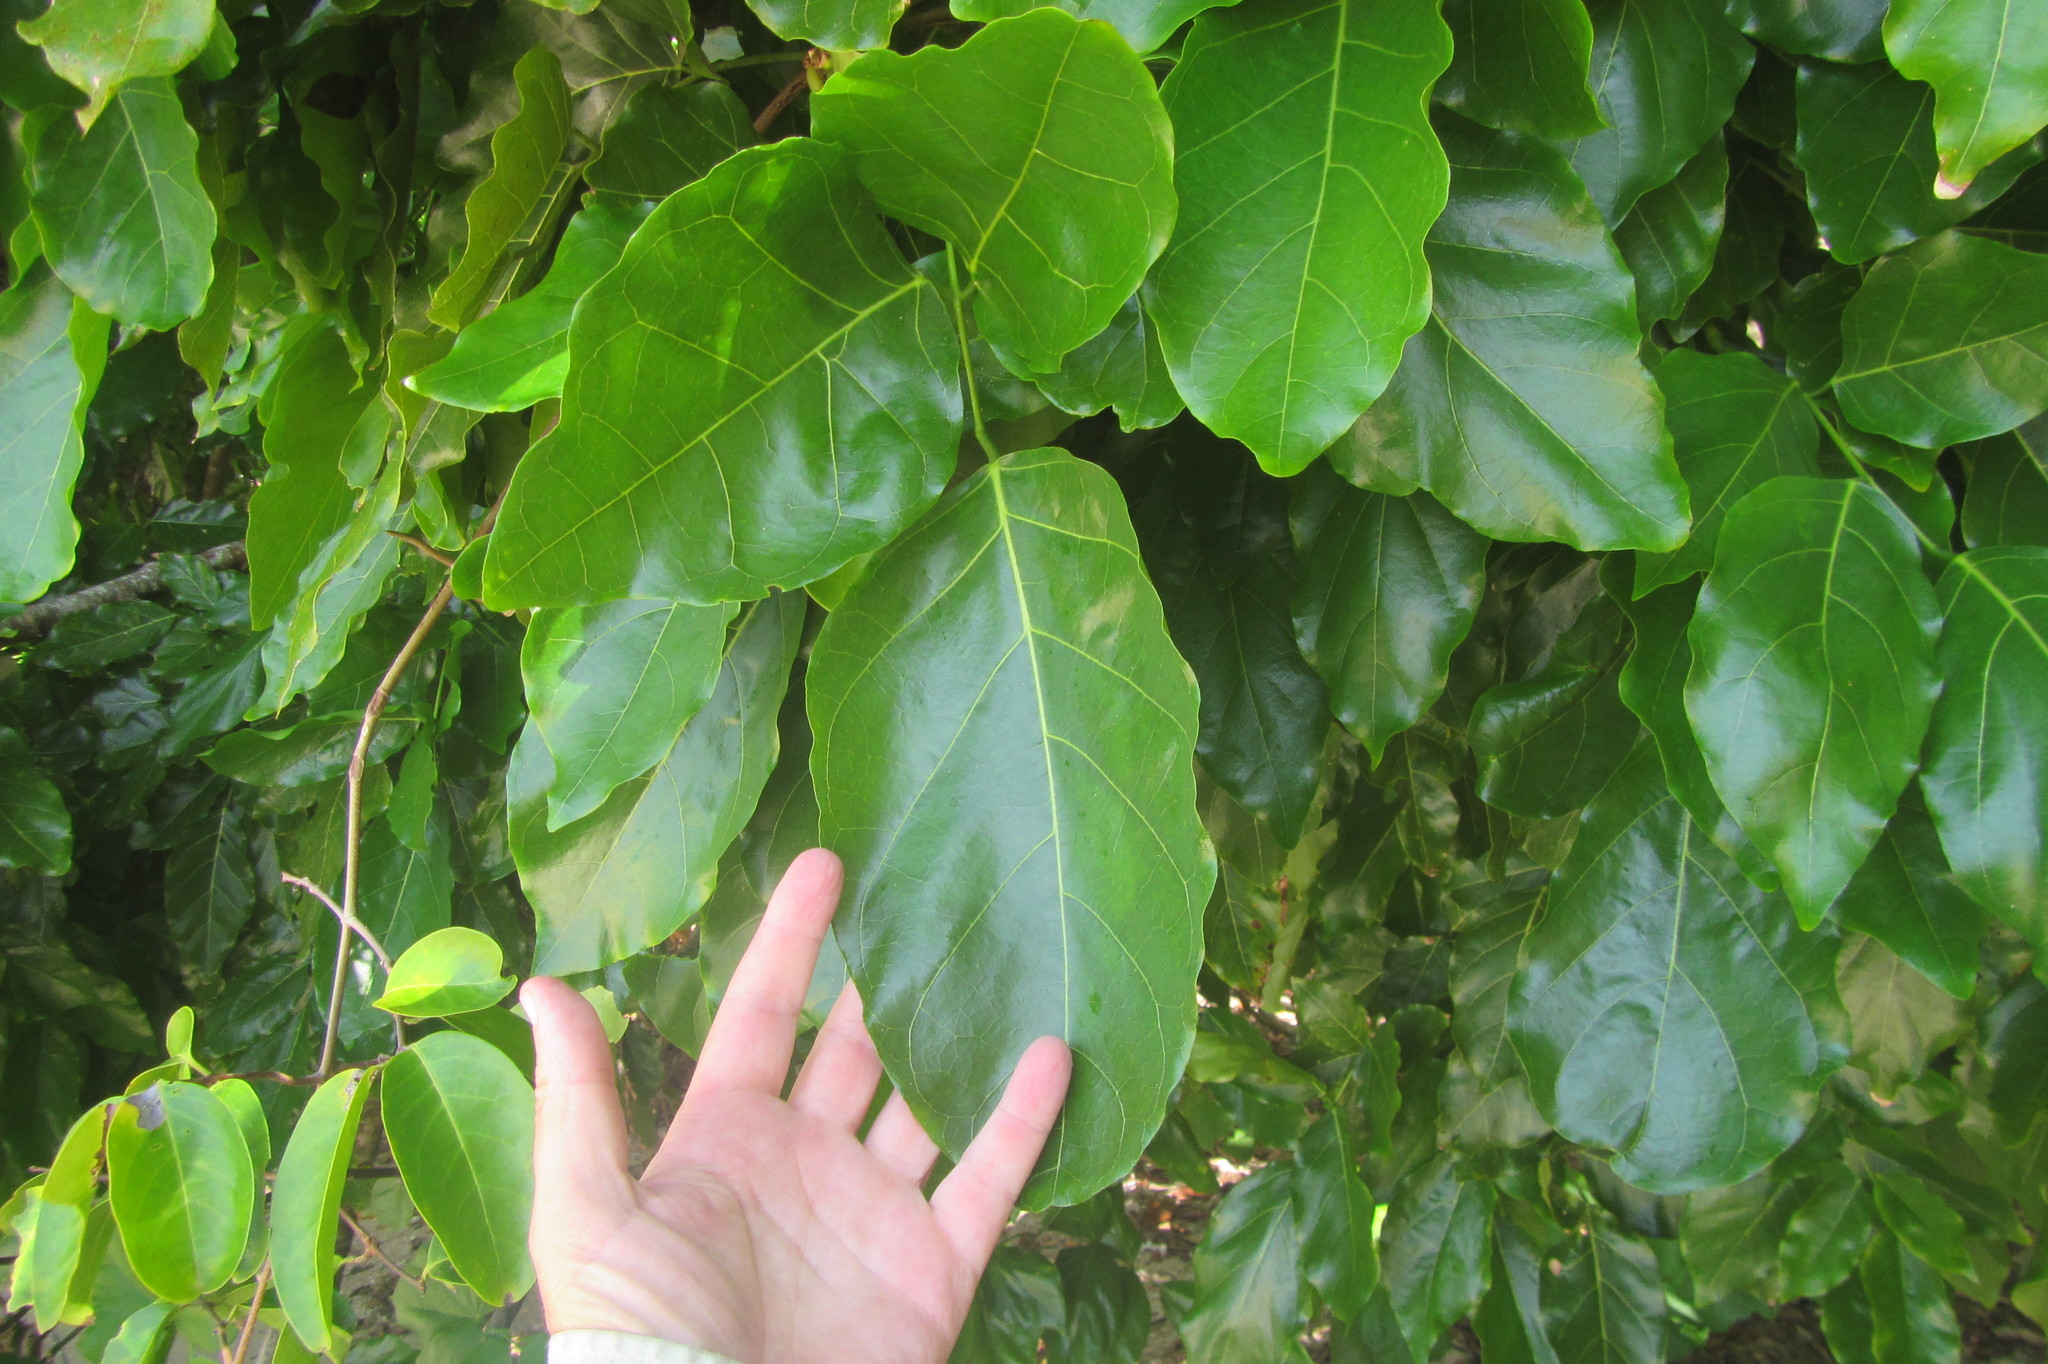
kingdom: Plantae
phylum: Tracheophyta
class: Magnoliopsida
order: Fabales
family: Fabaceae
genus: Pongamia
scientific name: Pongamia pinnata
